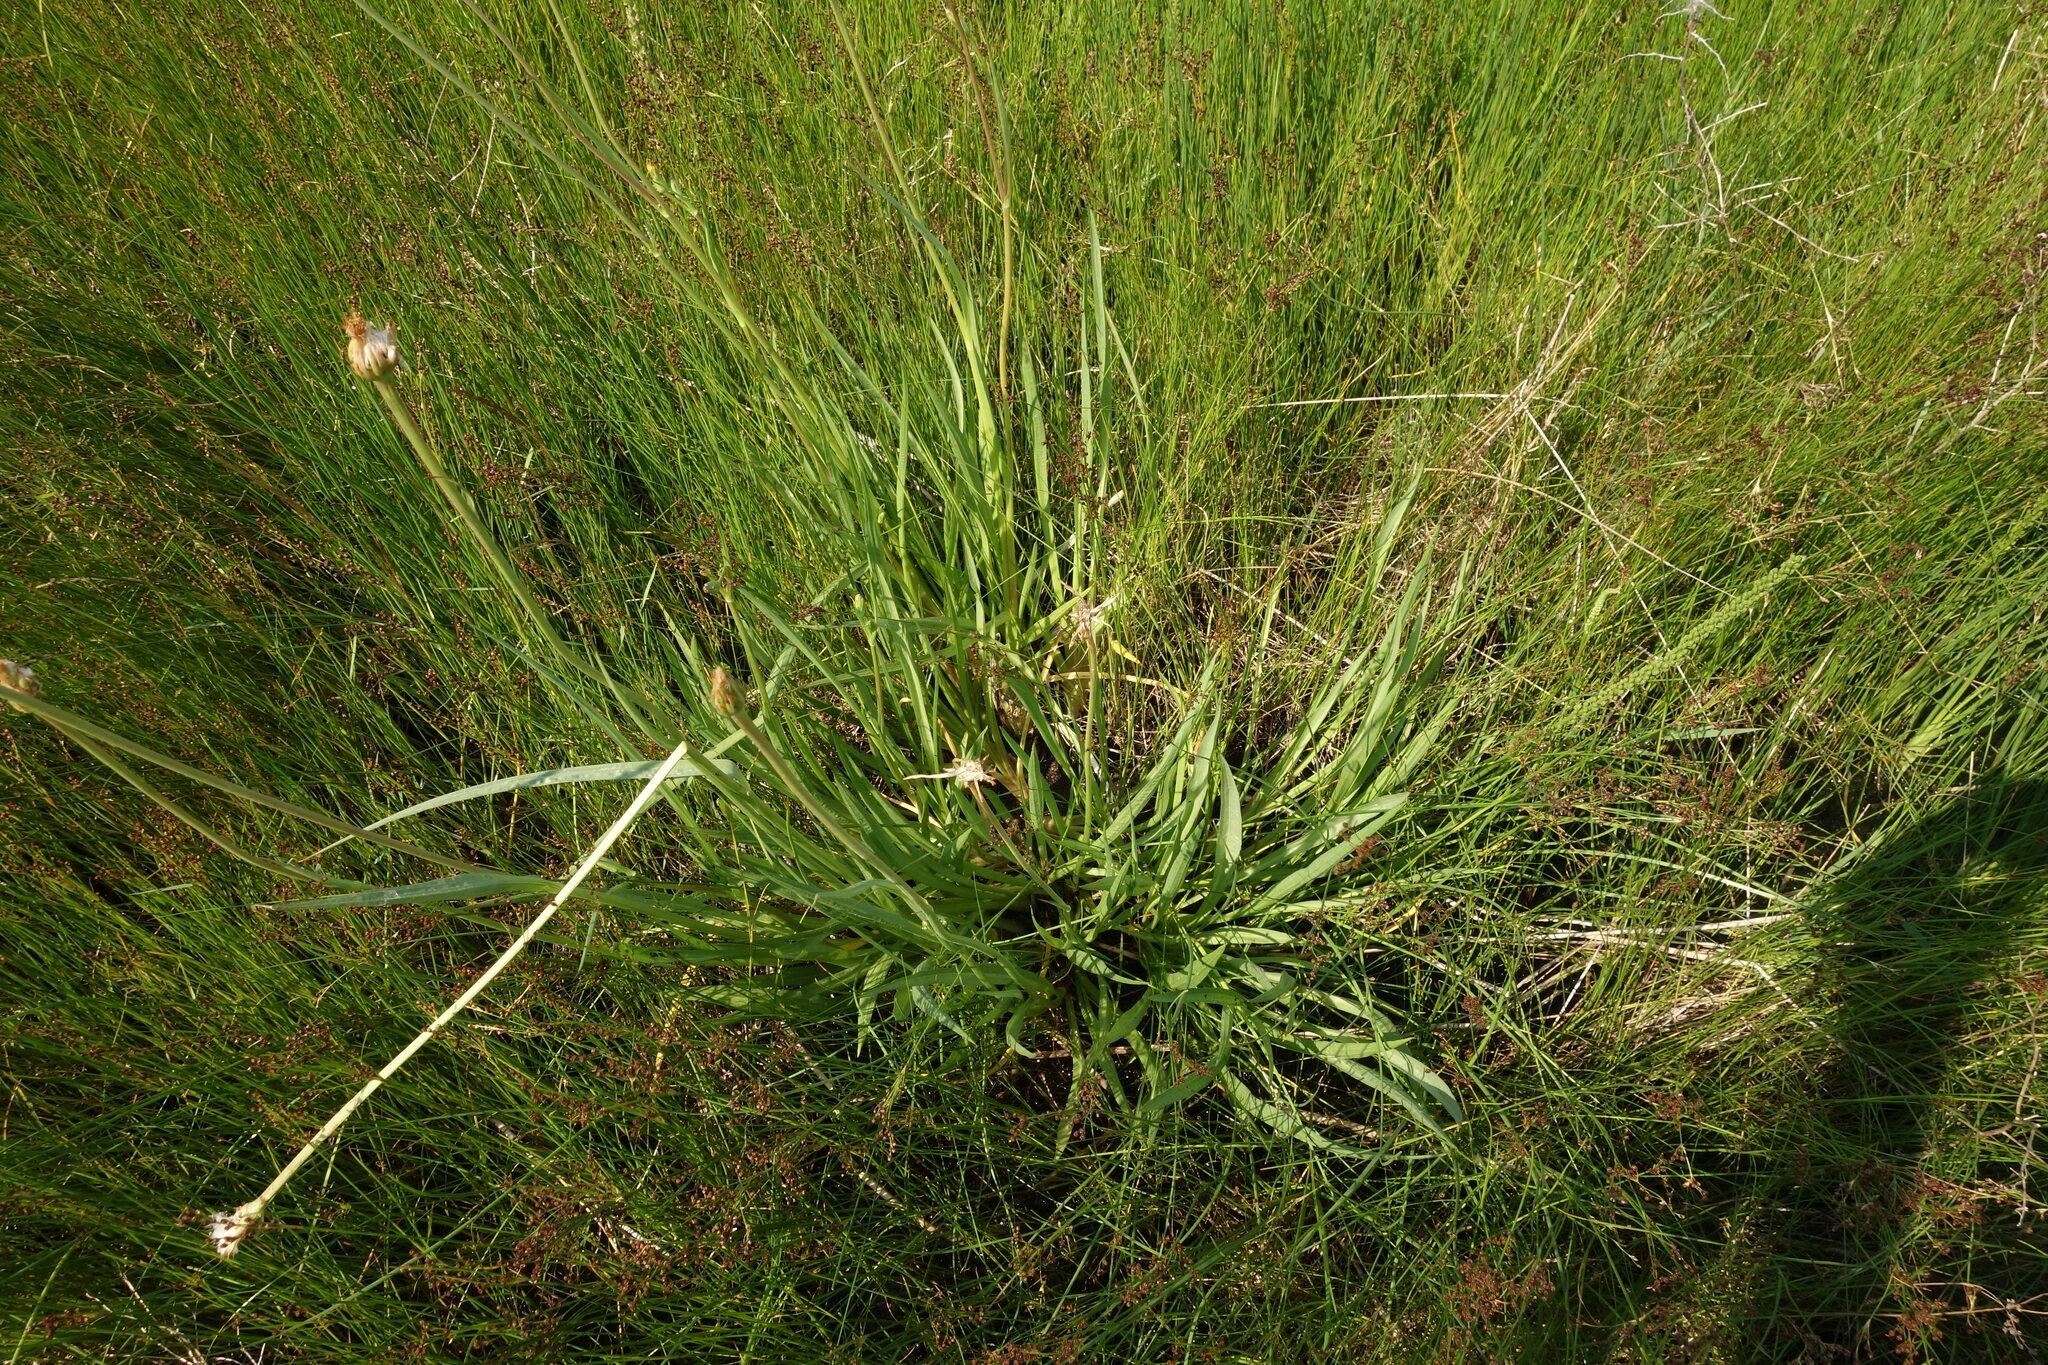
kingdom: Plantae
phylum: Tracheophyta
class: Magnoliopsida
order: Asterales
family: Asteraceae
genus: Scorzonera
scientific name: Scorzonera parviflora
